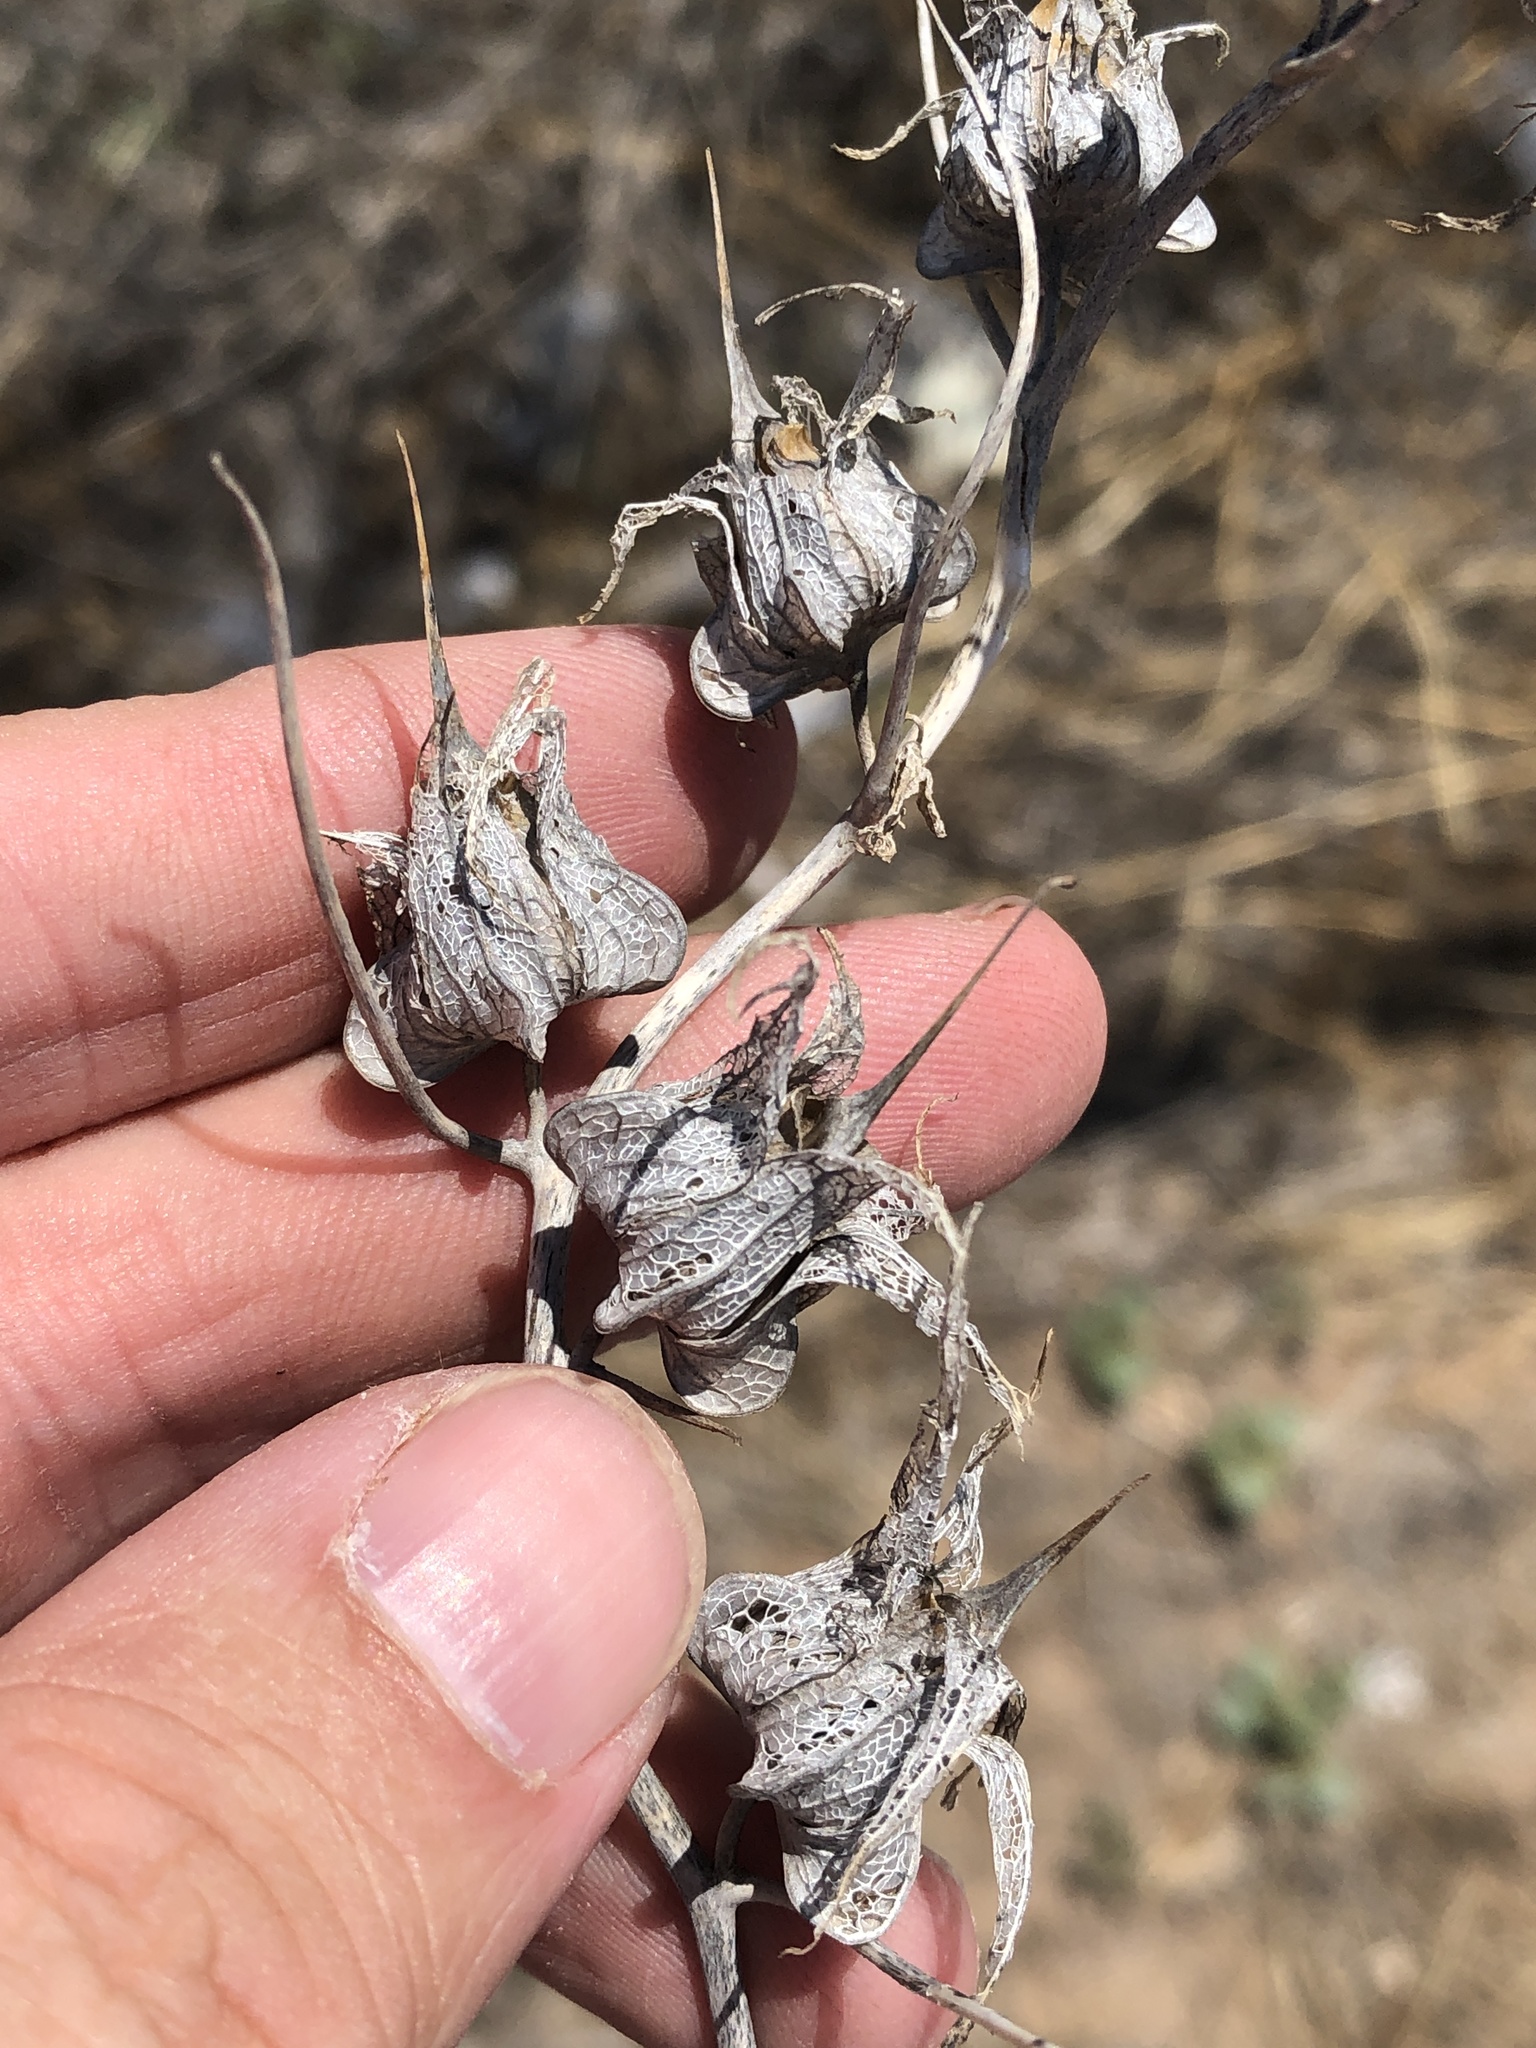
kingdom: Plantae
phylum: Tracheophyta
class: Magnoliopsida
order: Lamiales
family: Plantaginaceae
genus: Epixiphium
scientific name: Epixiphium wislizeni
